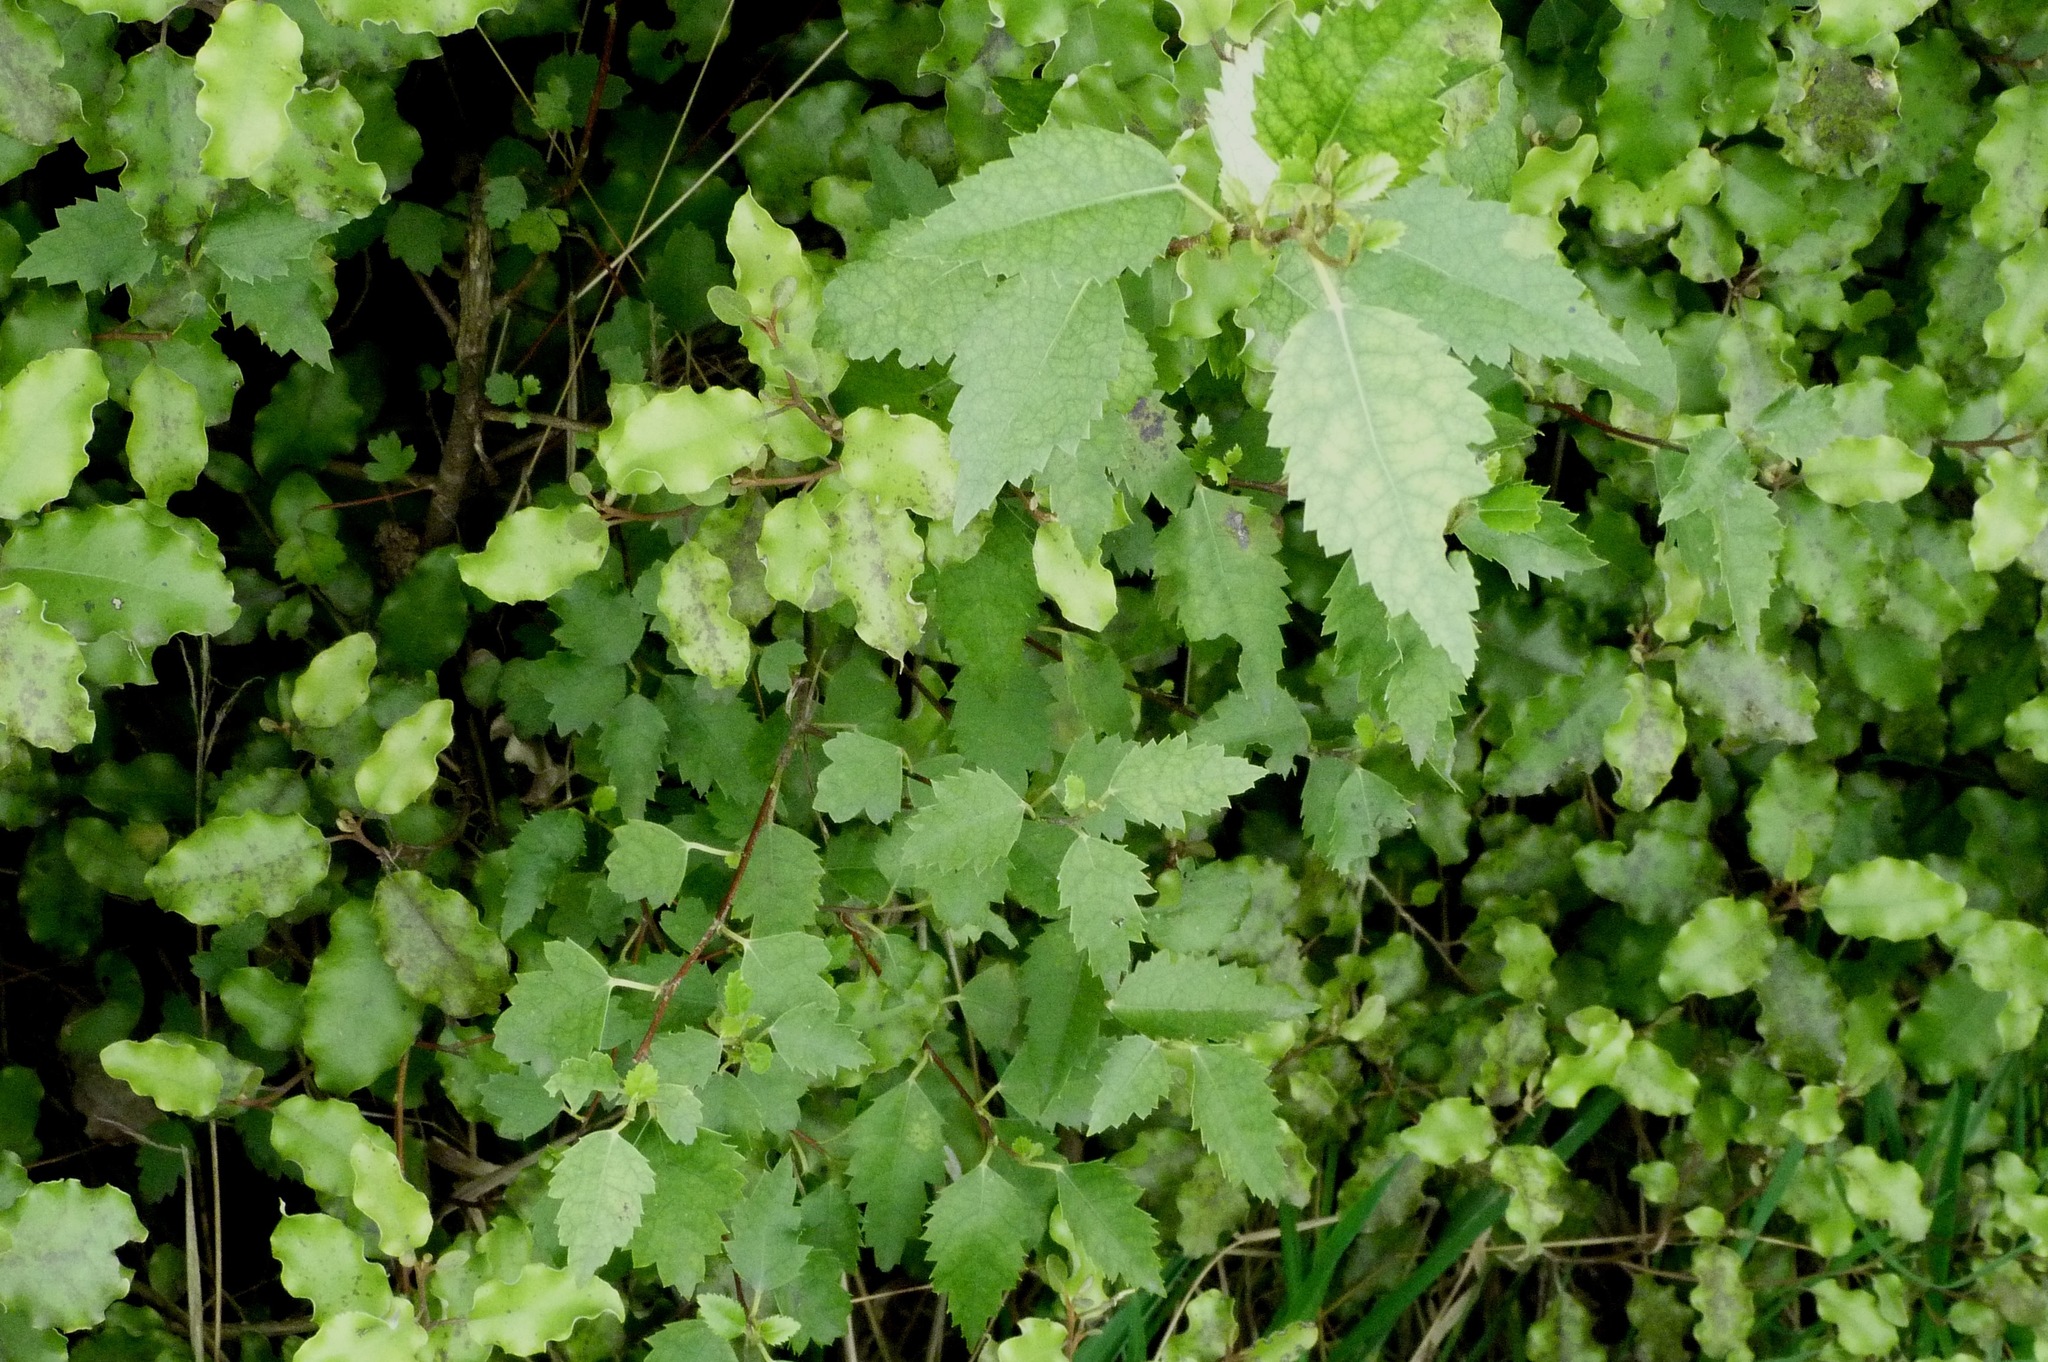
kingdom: Plantae
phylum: Tracheophyta
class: Magnoliopsida
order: Malvales
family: Malvaceae
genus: Hoheria
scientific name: Hoheria populnea
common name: Lacebark
